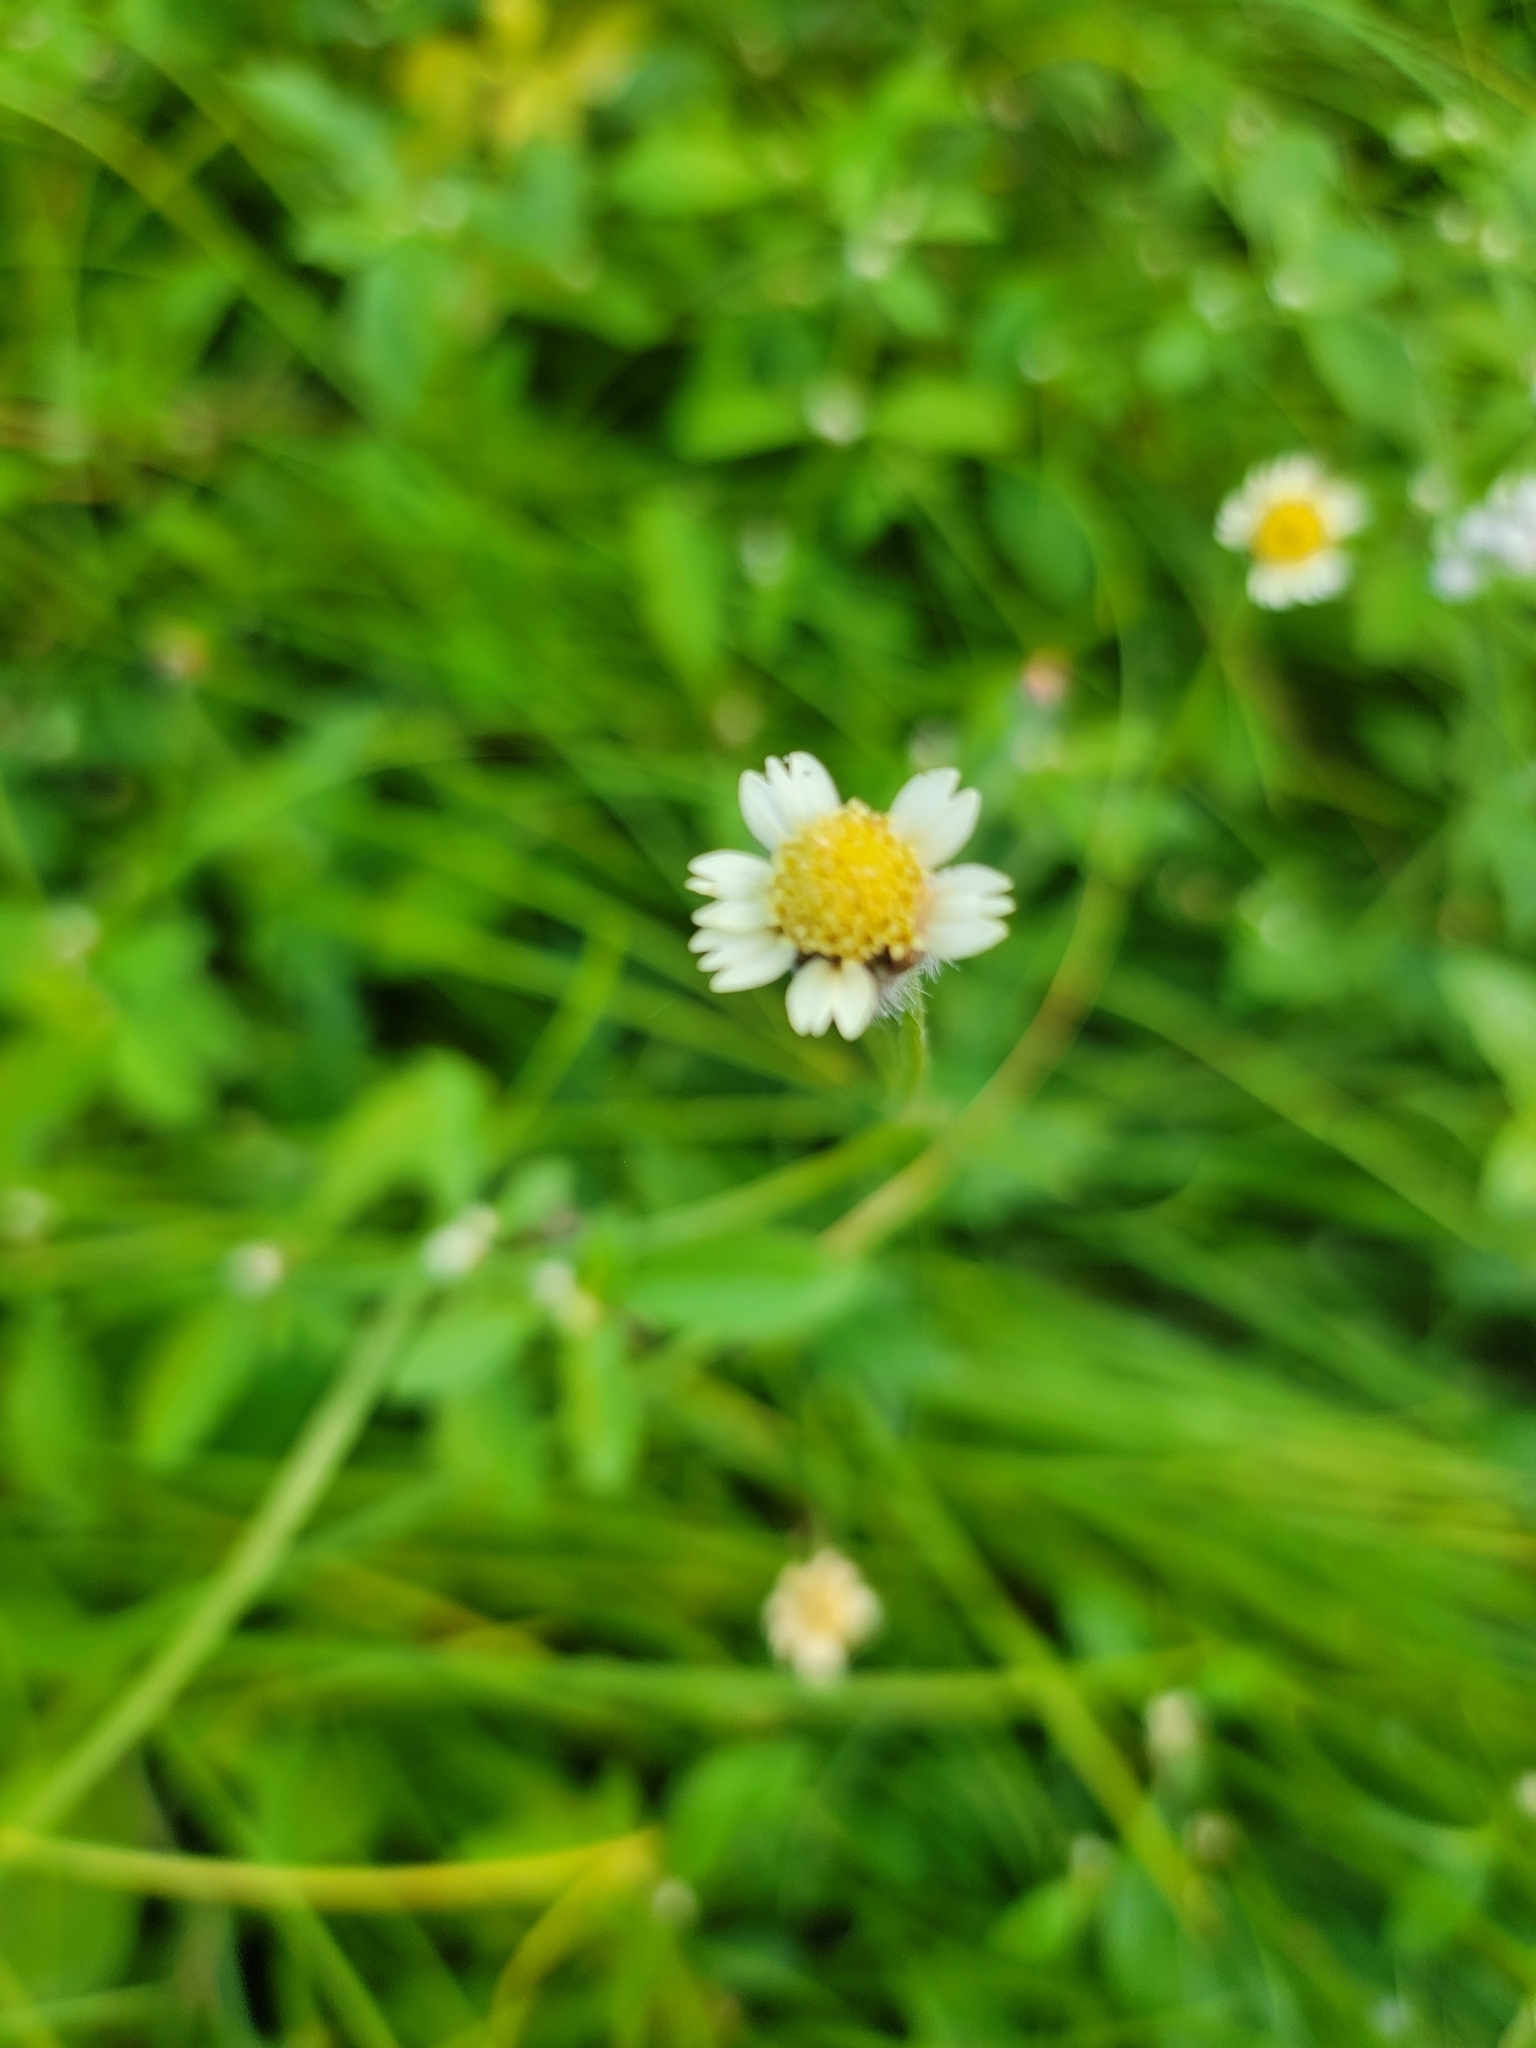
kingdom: Plantae
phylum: Tracheophyta
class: Magnoliopsida
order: Asterales
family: Asteraceae
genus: Tridax
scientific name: Tridax procumbens
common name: Coatbuttons
